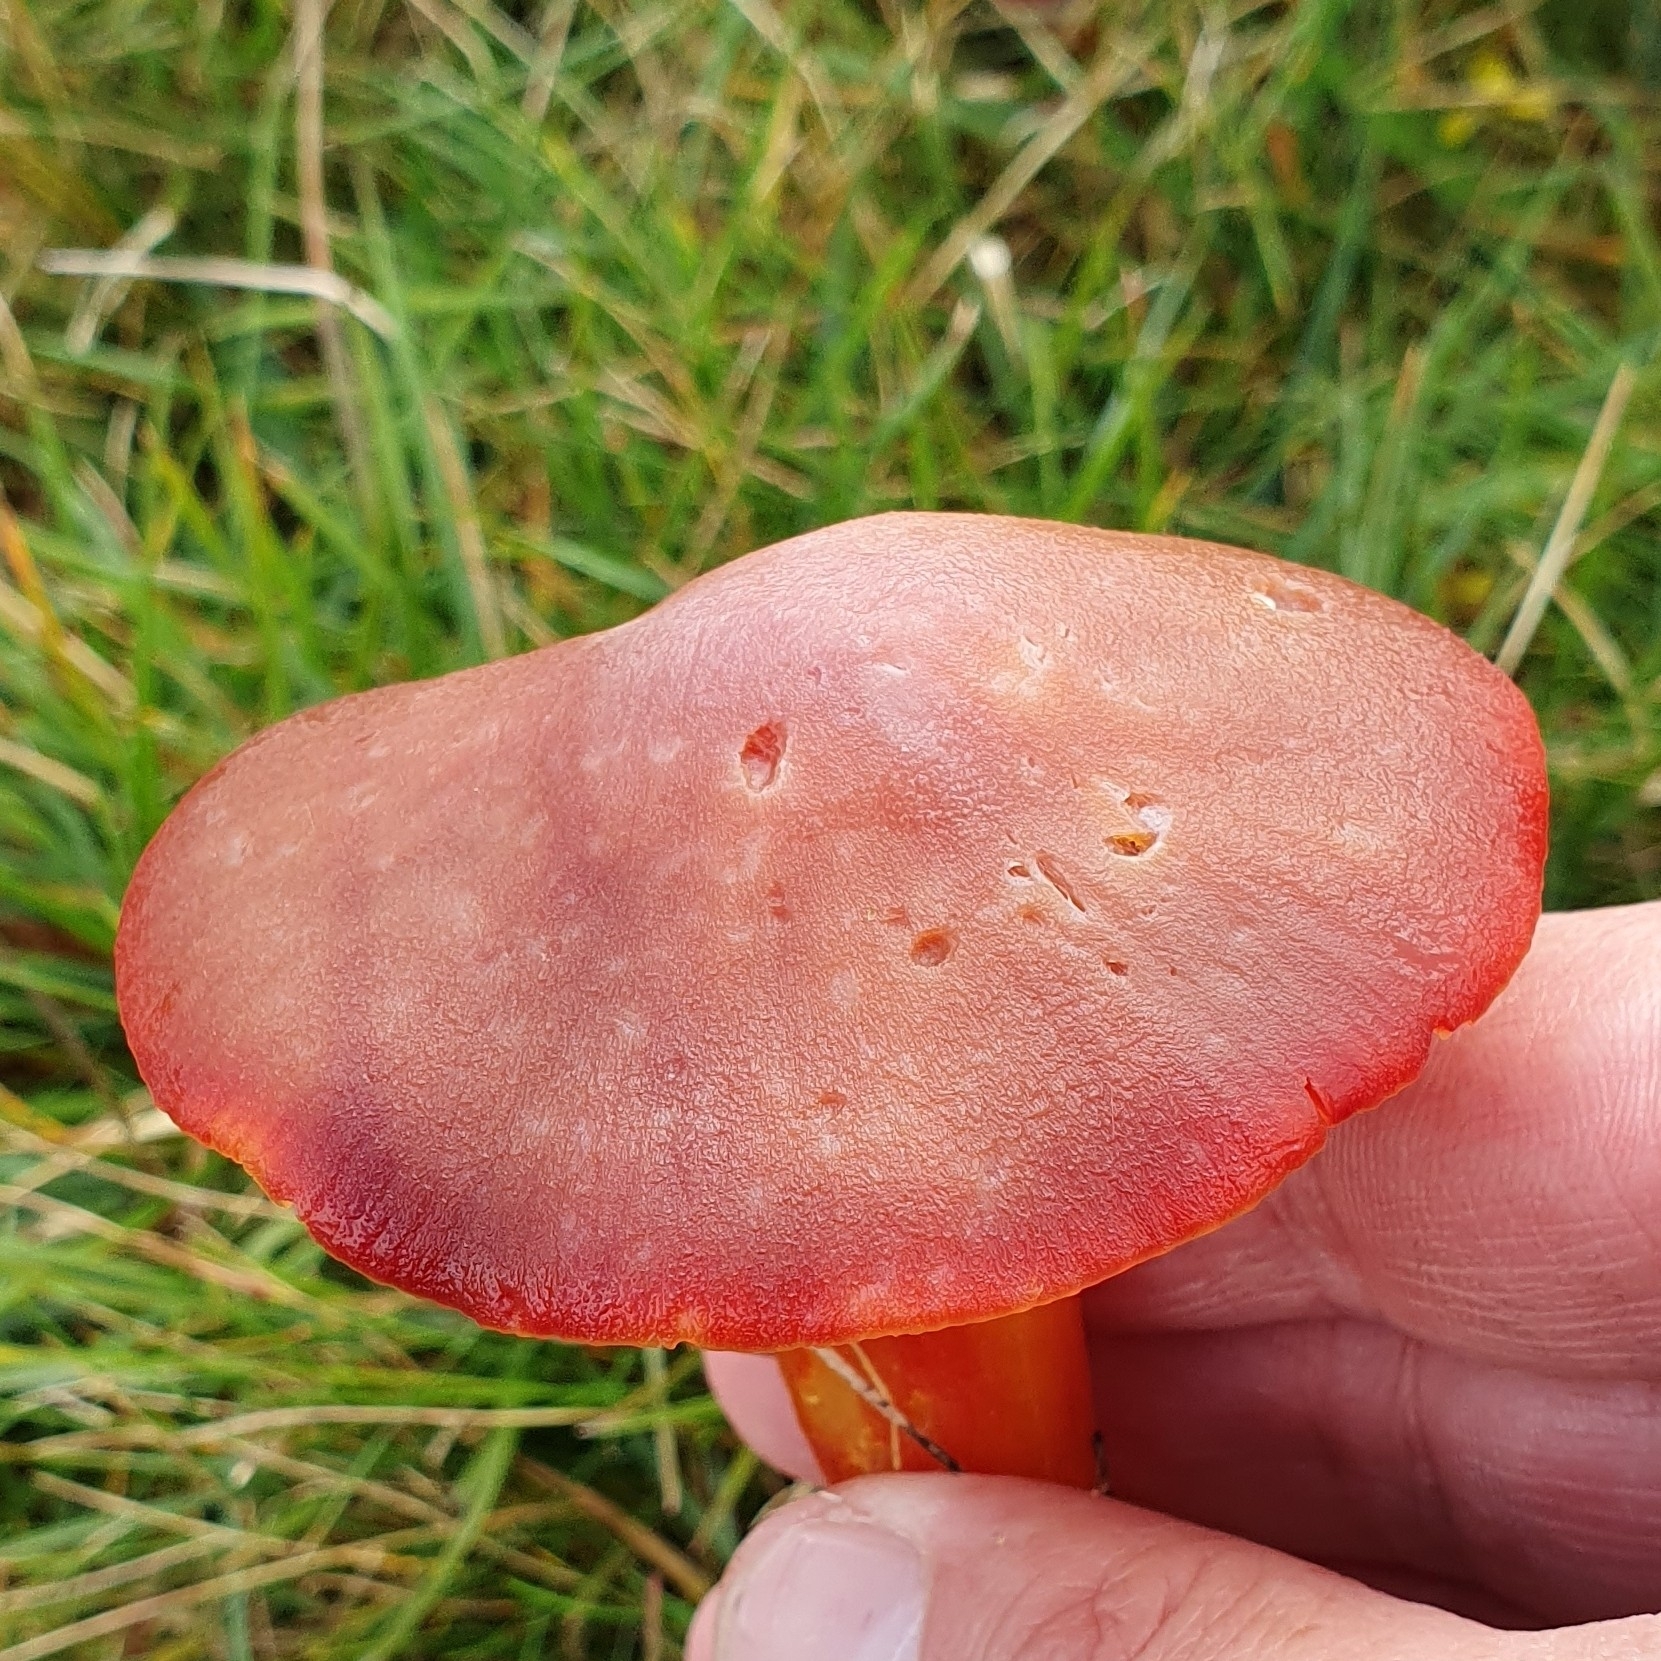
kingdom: Fungi
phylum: Basidiomycota
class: Agaricomycetes
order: Agaricales
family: Hygrophoraceae
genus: Hygrocybe
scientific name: Hygrocybe punicea
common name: Crimson waxcap
